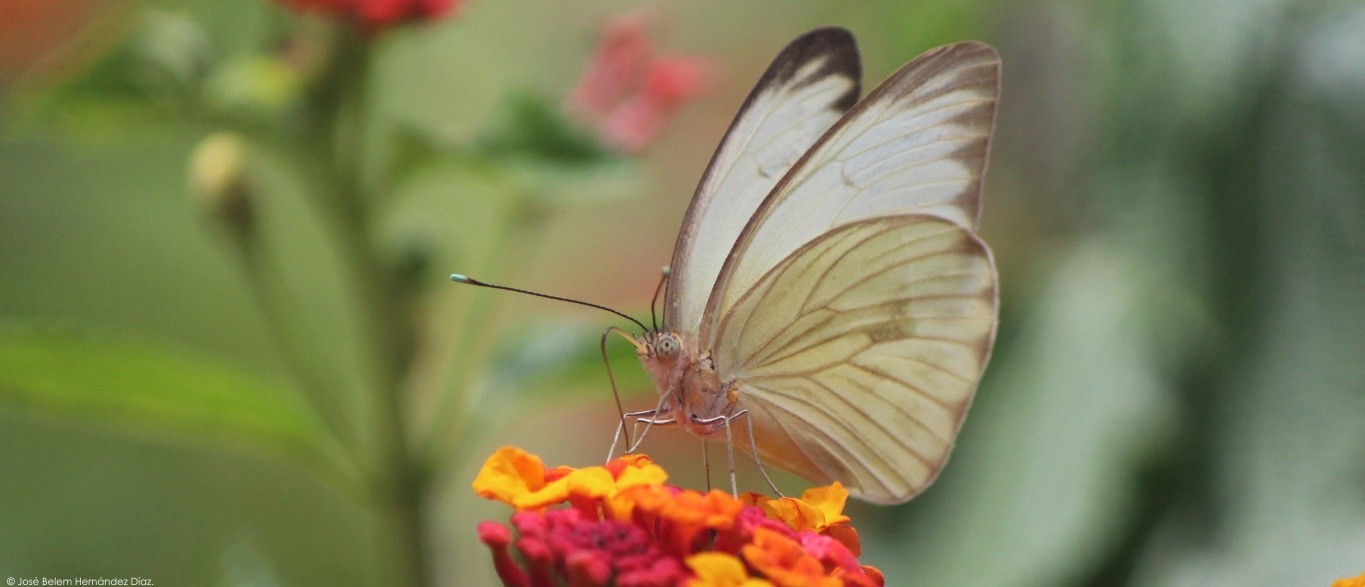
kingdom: Animalia
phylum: Arthropoda
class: Insecta
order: Lepidoptera
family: Pieridae
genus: Ascia
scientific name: Ascia monuste
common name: Great southern white
